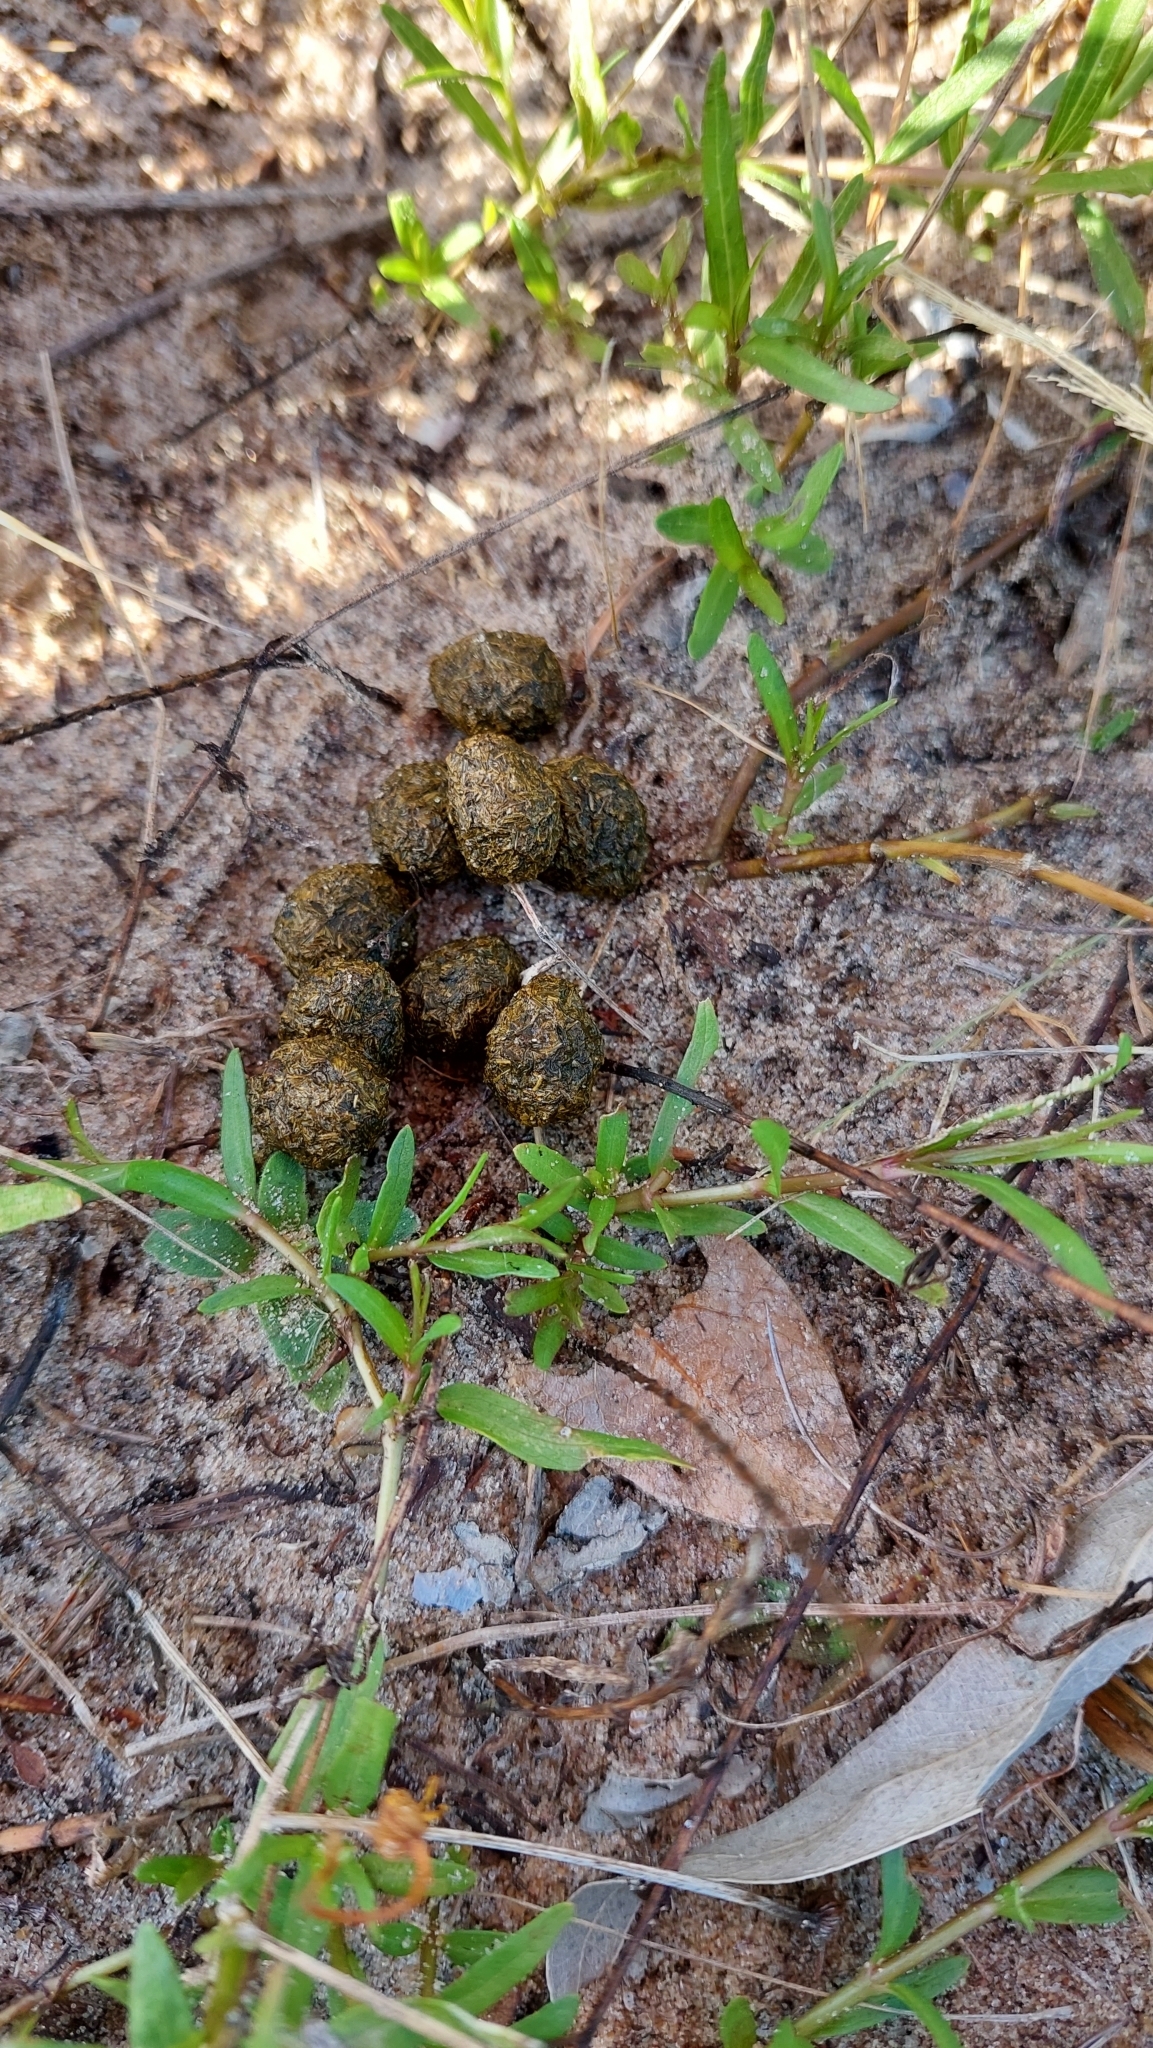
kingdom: Animalia
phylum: Chordata
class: Mammalia
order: Lagomorpha
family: Leporidae
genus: Lepus
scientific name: Lepus europaeus
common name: European hare
